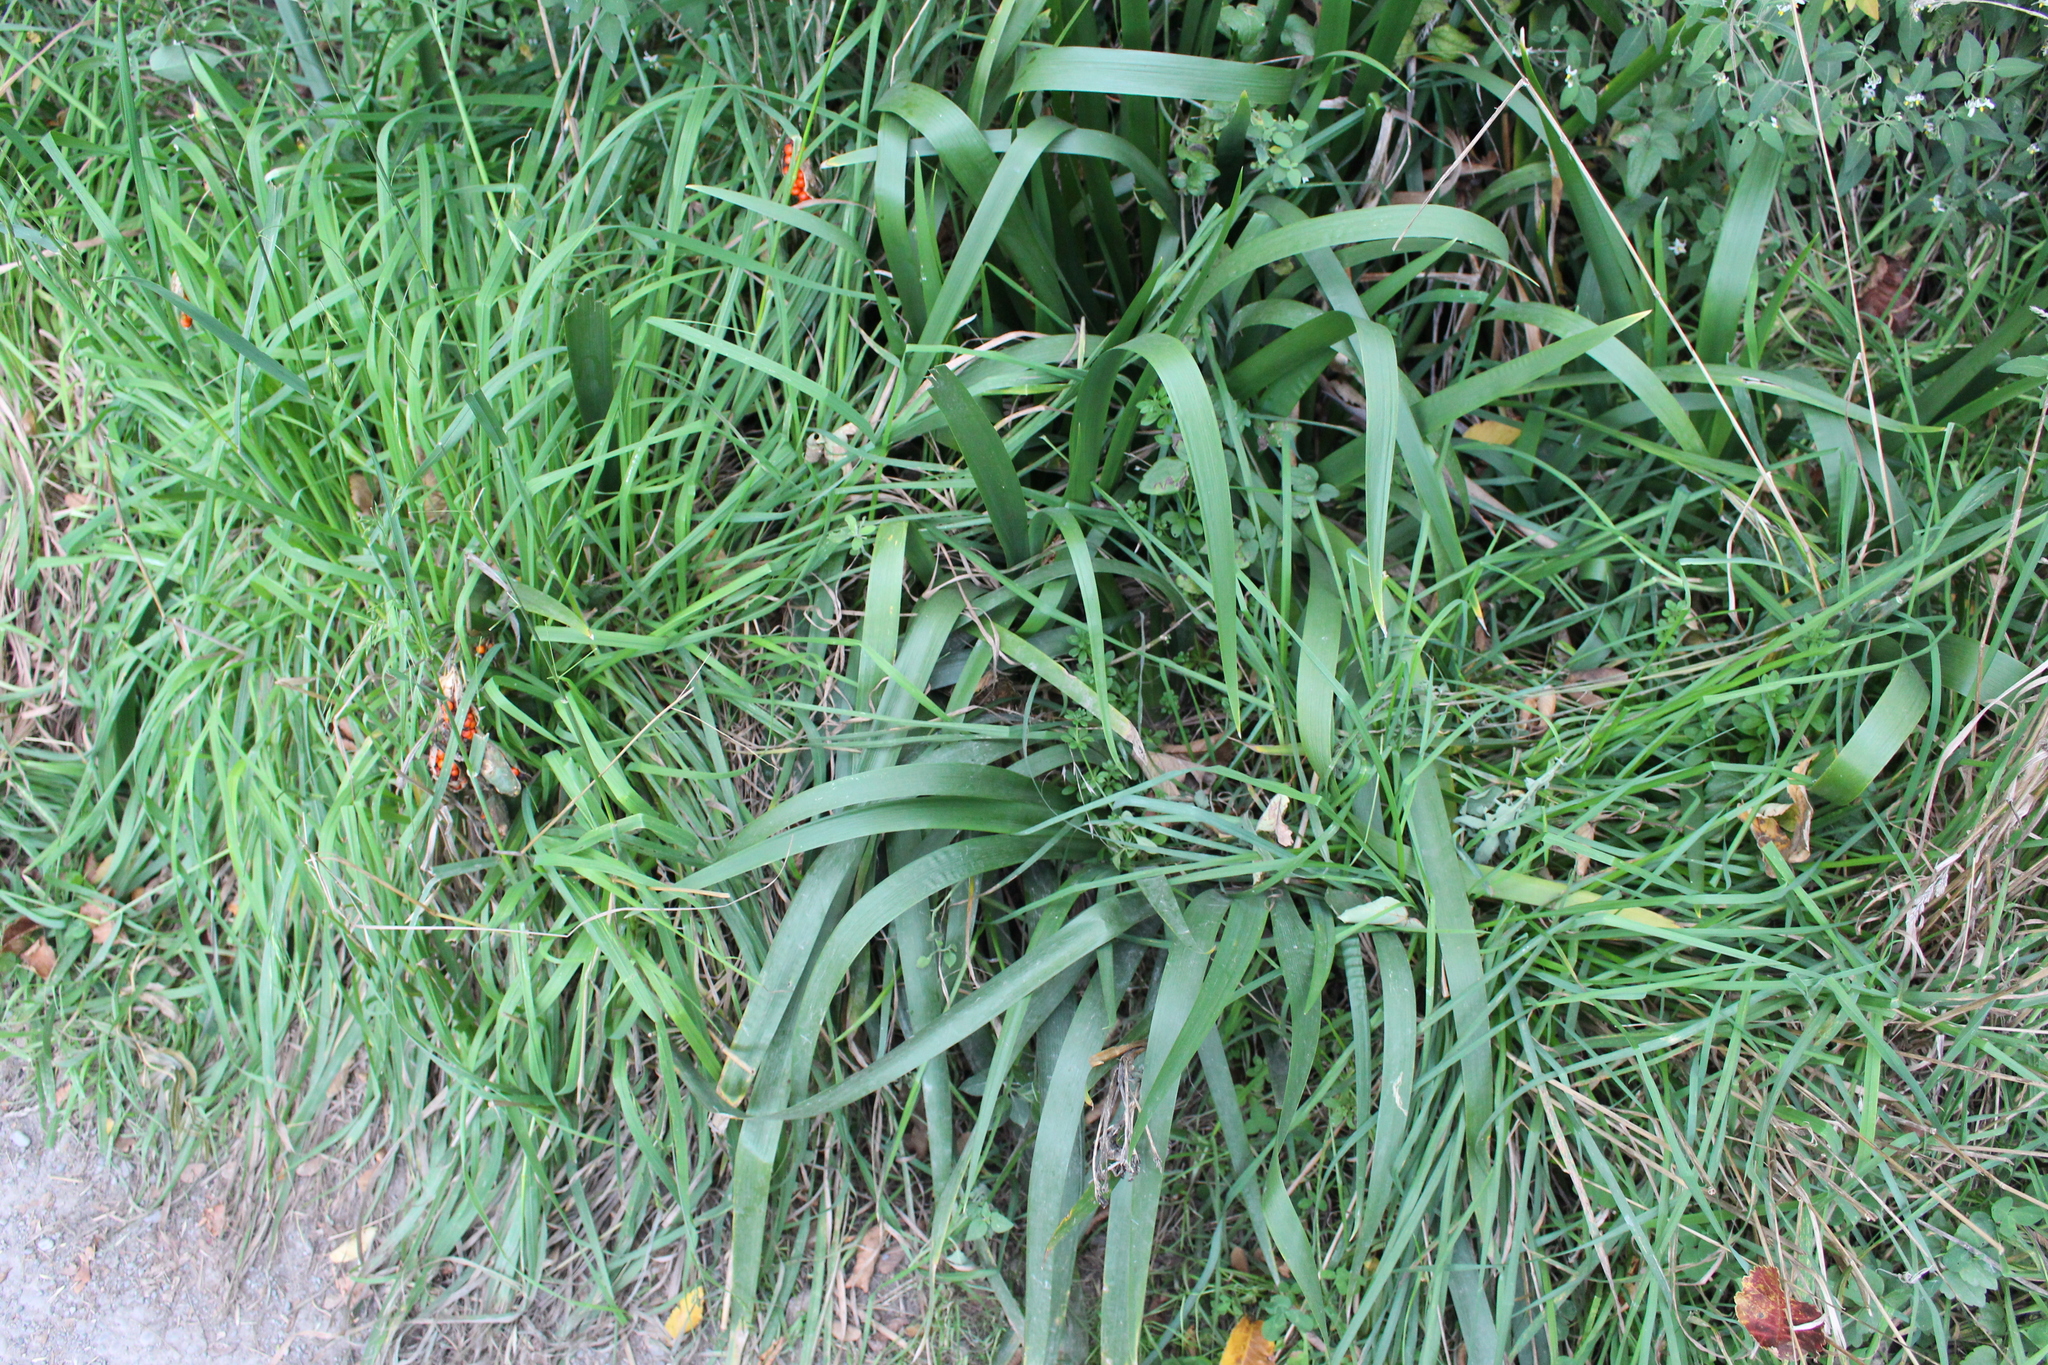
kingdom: Plantae
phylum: Tracheophyta
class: Liliopsida
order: Asparagales
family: Iridaceae
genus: Iris
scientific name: Iris foetidissima
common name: Stinking iris
